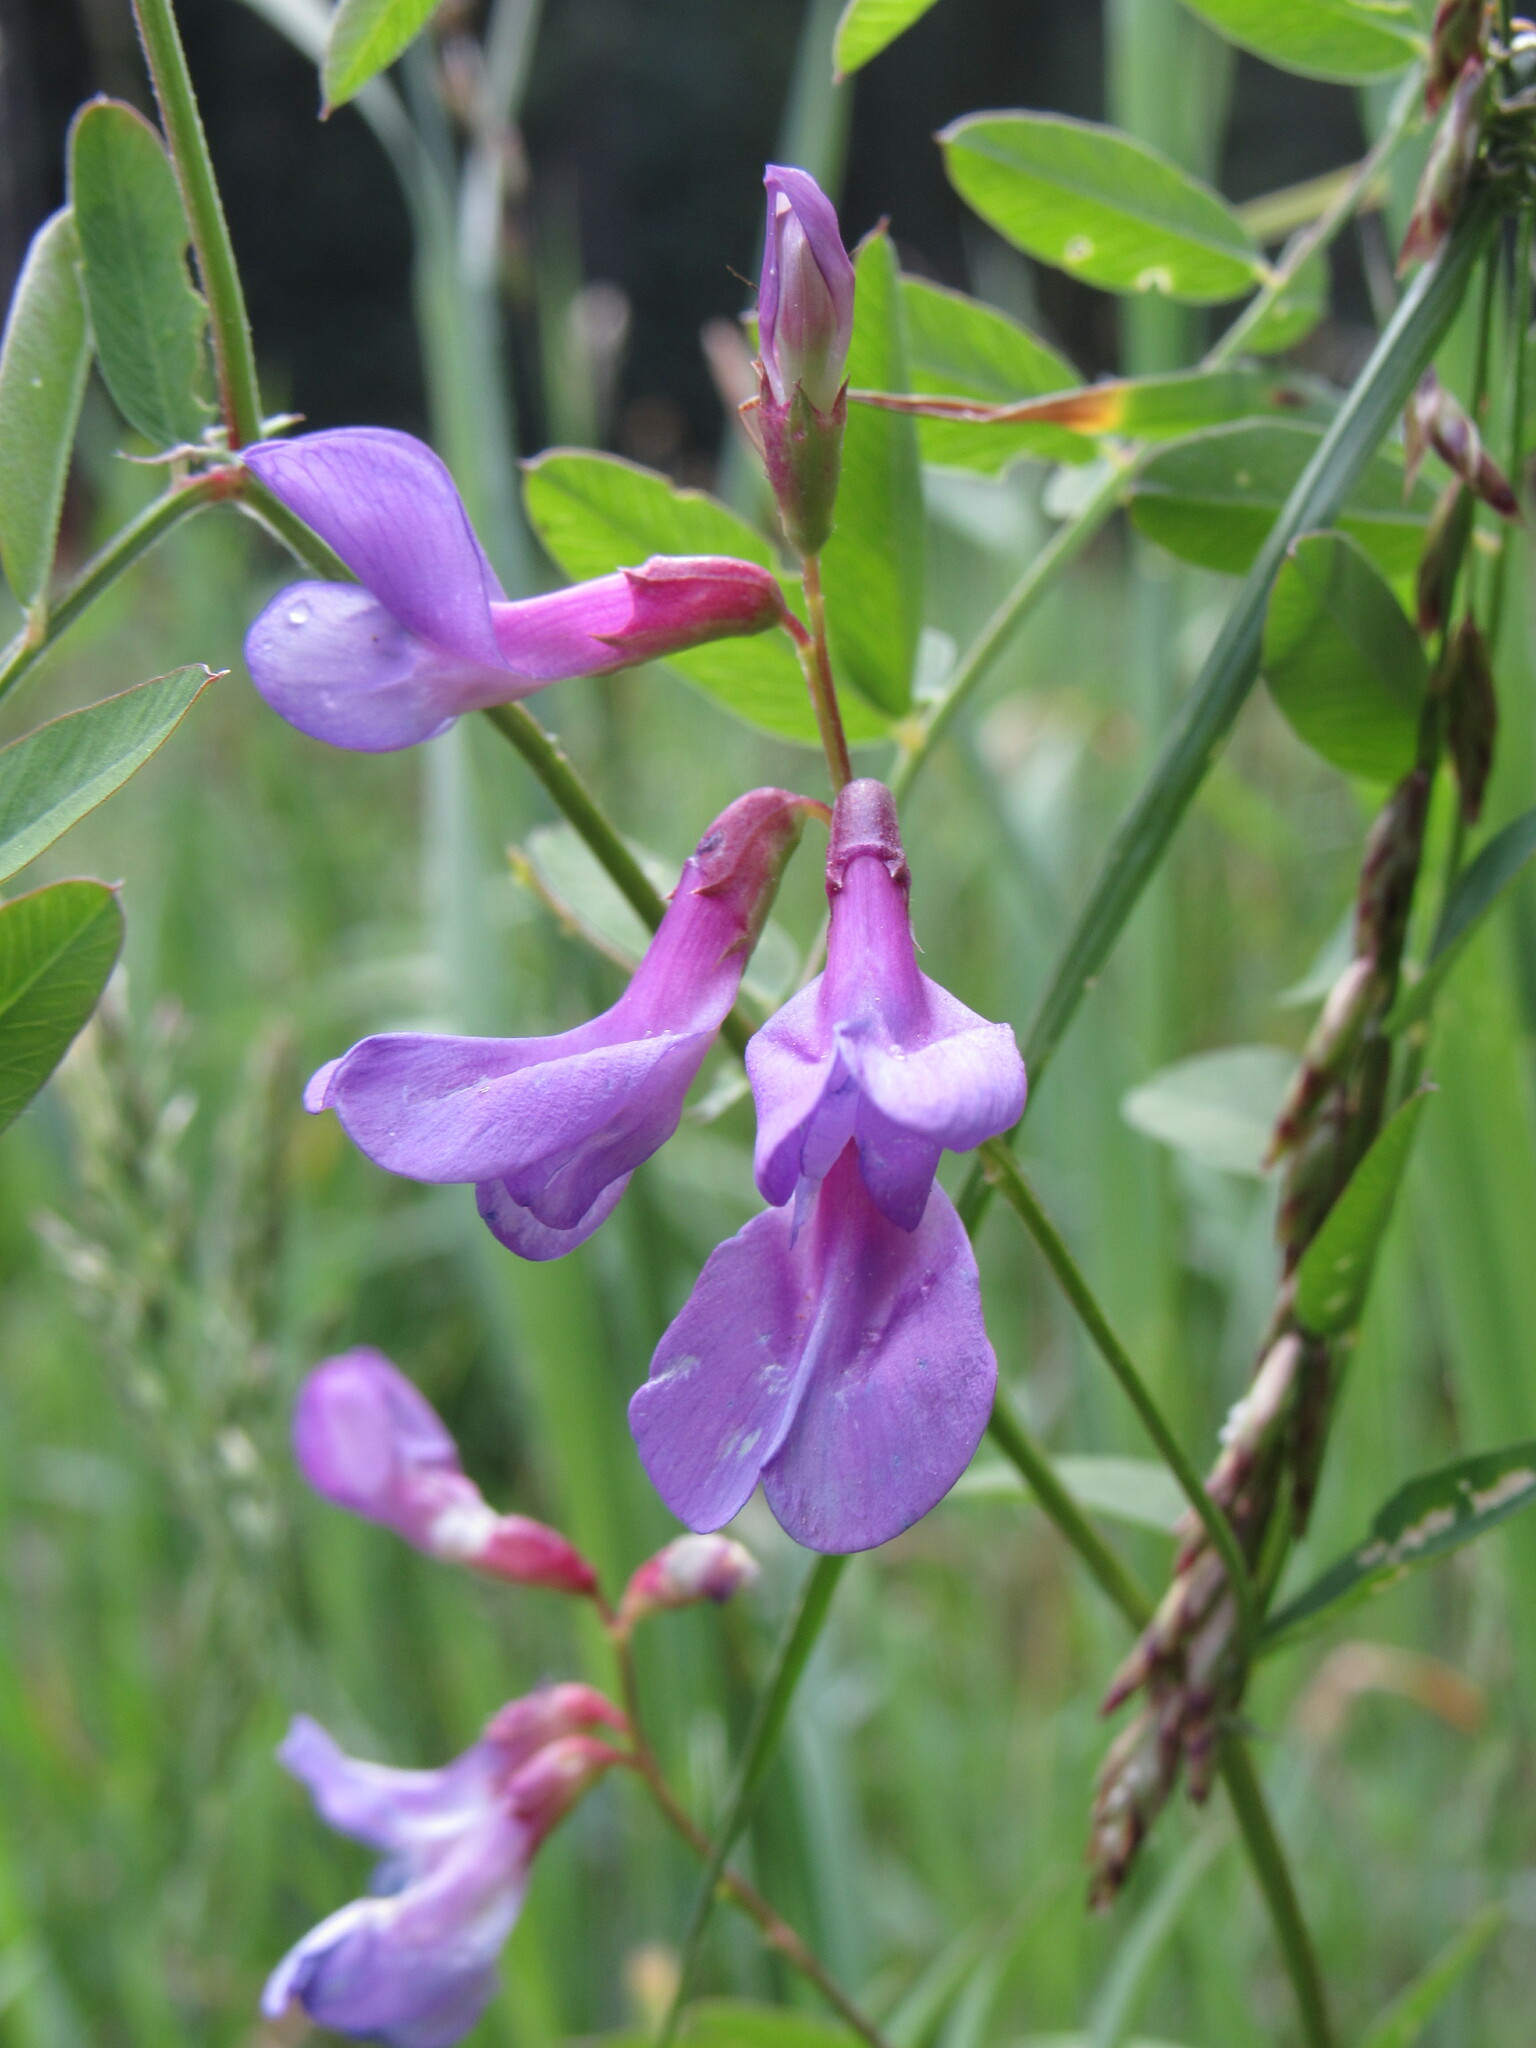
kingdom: Plantae
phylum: Tracheophyta
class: Magnoliopsida
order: Fabales
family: Fabaceae
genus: Vicia
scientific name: Vicia americana
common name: American vetch
